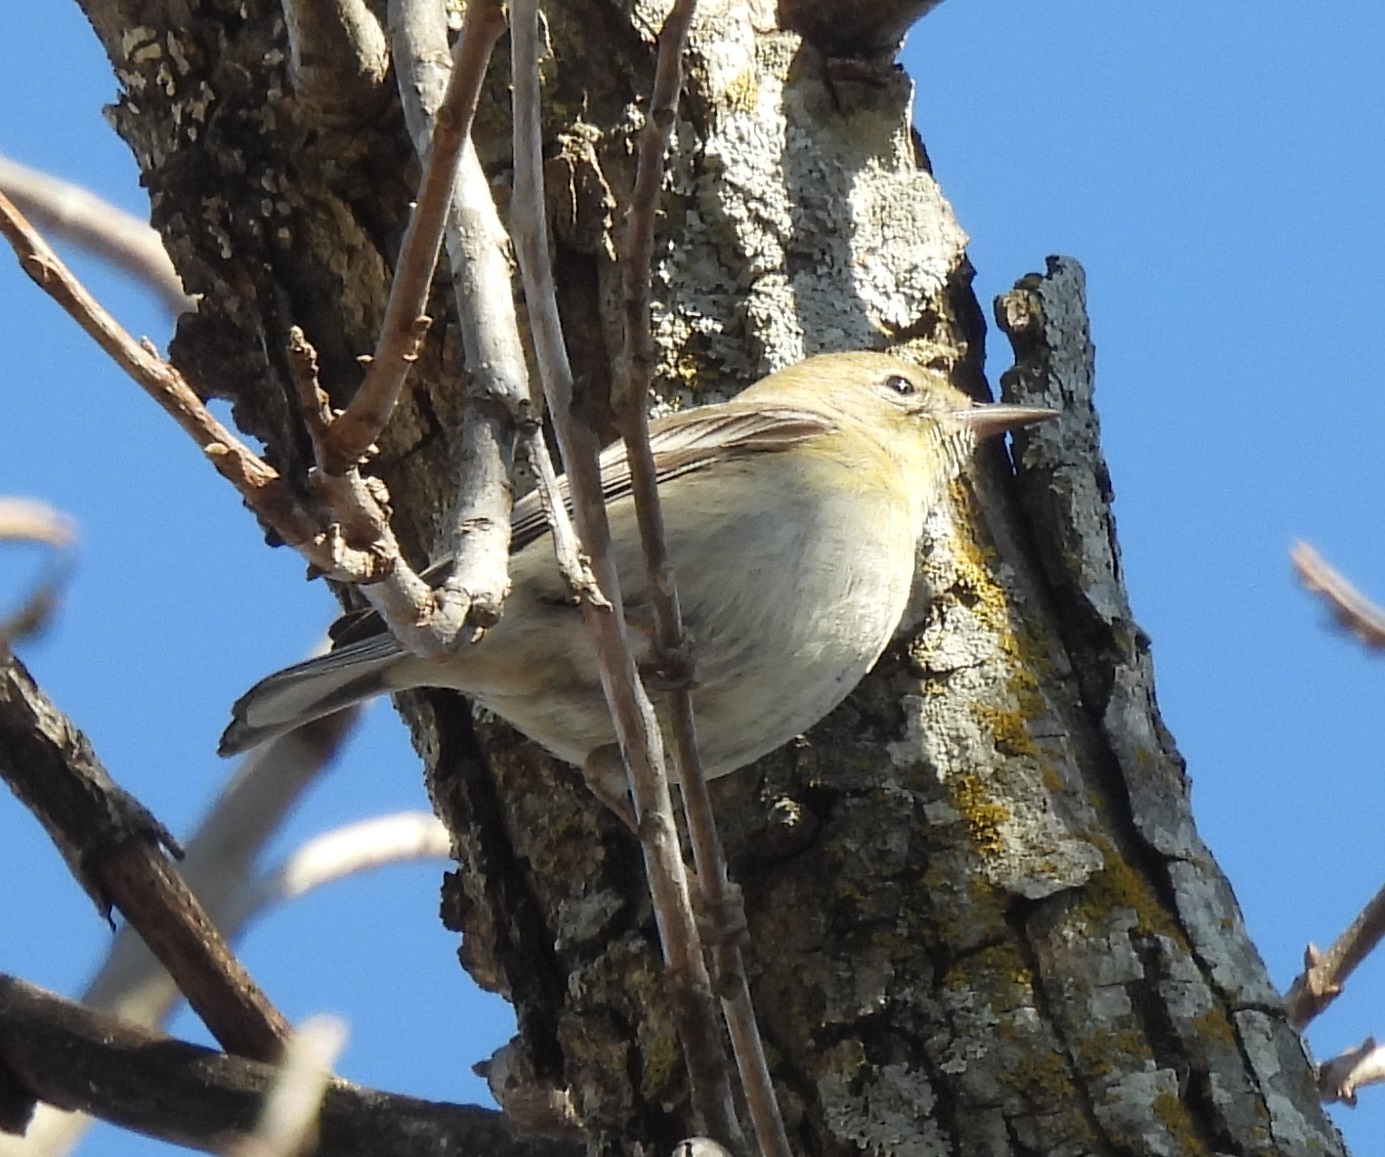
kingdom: Animalia
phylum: Chordata
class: Aves
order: Passeriformes
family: Parulidae
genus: Setophaga
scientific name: Setophaga pinus
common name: Pine warbler
